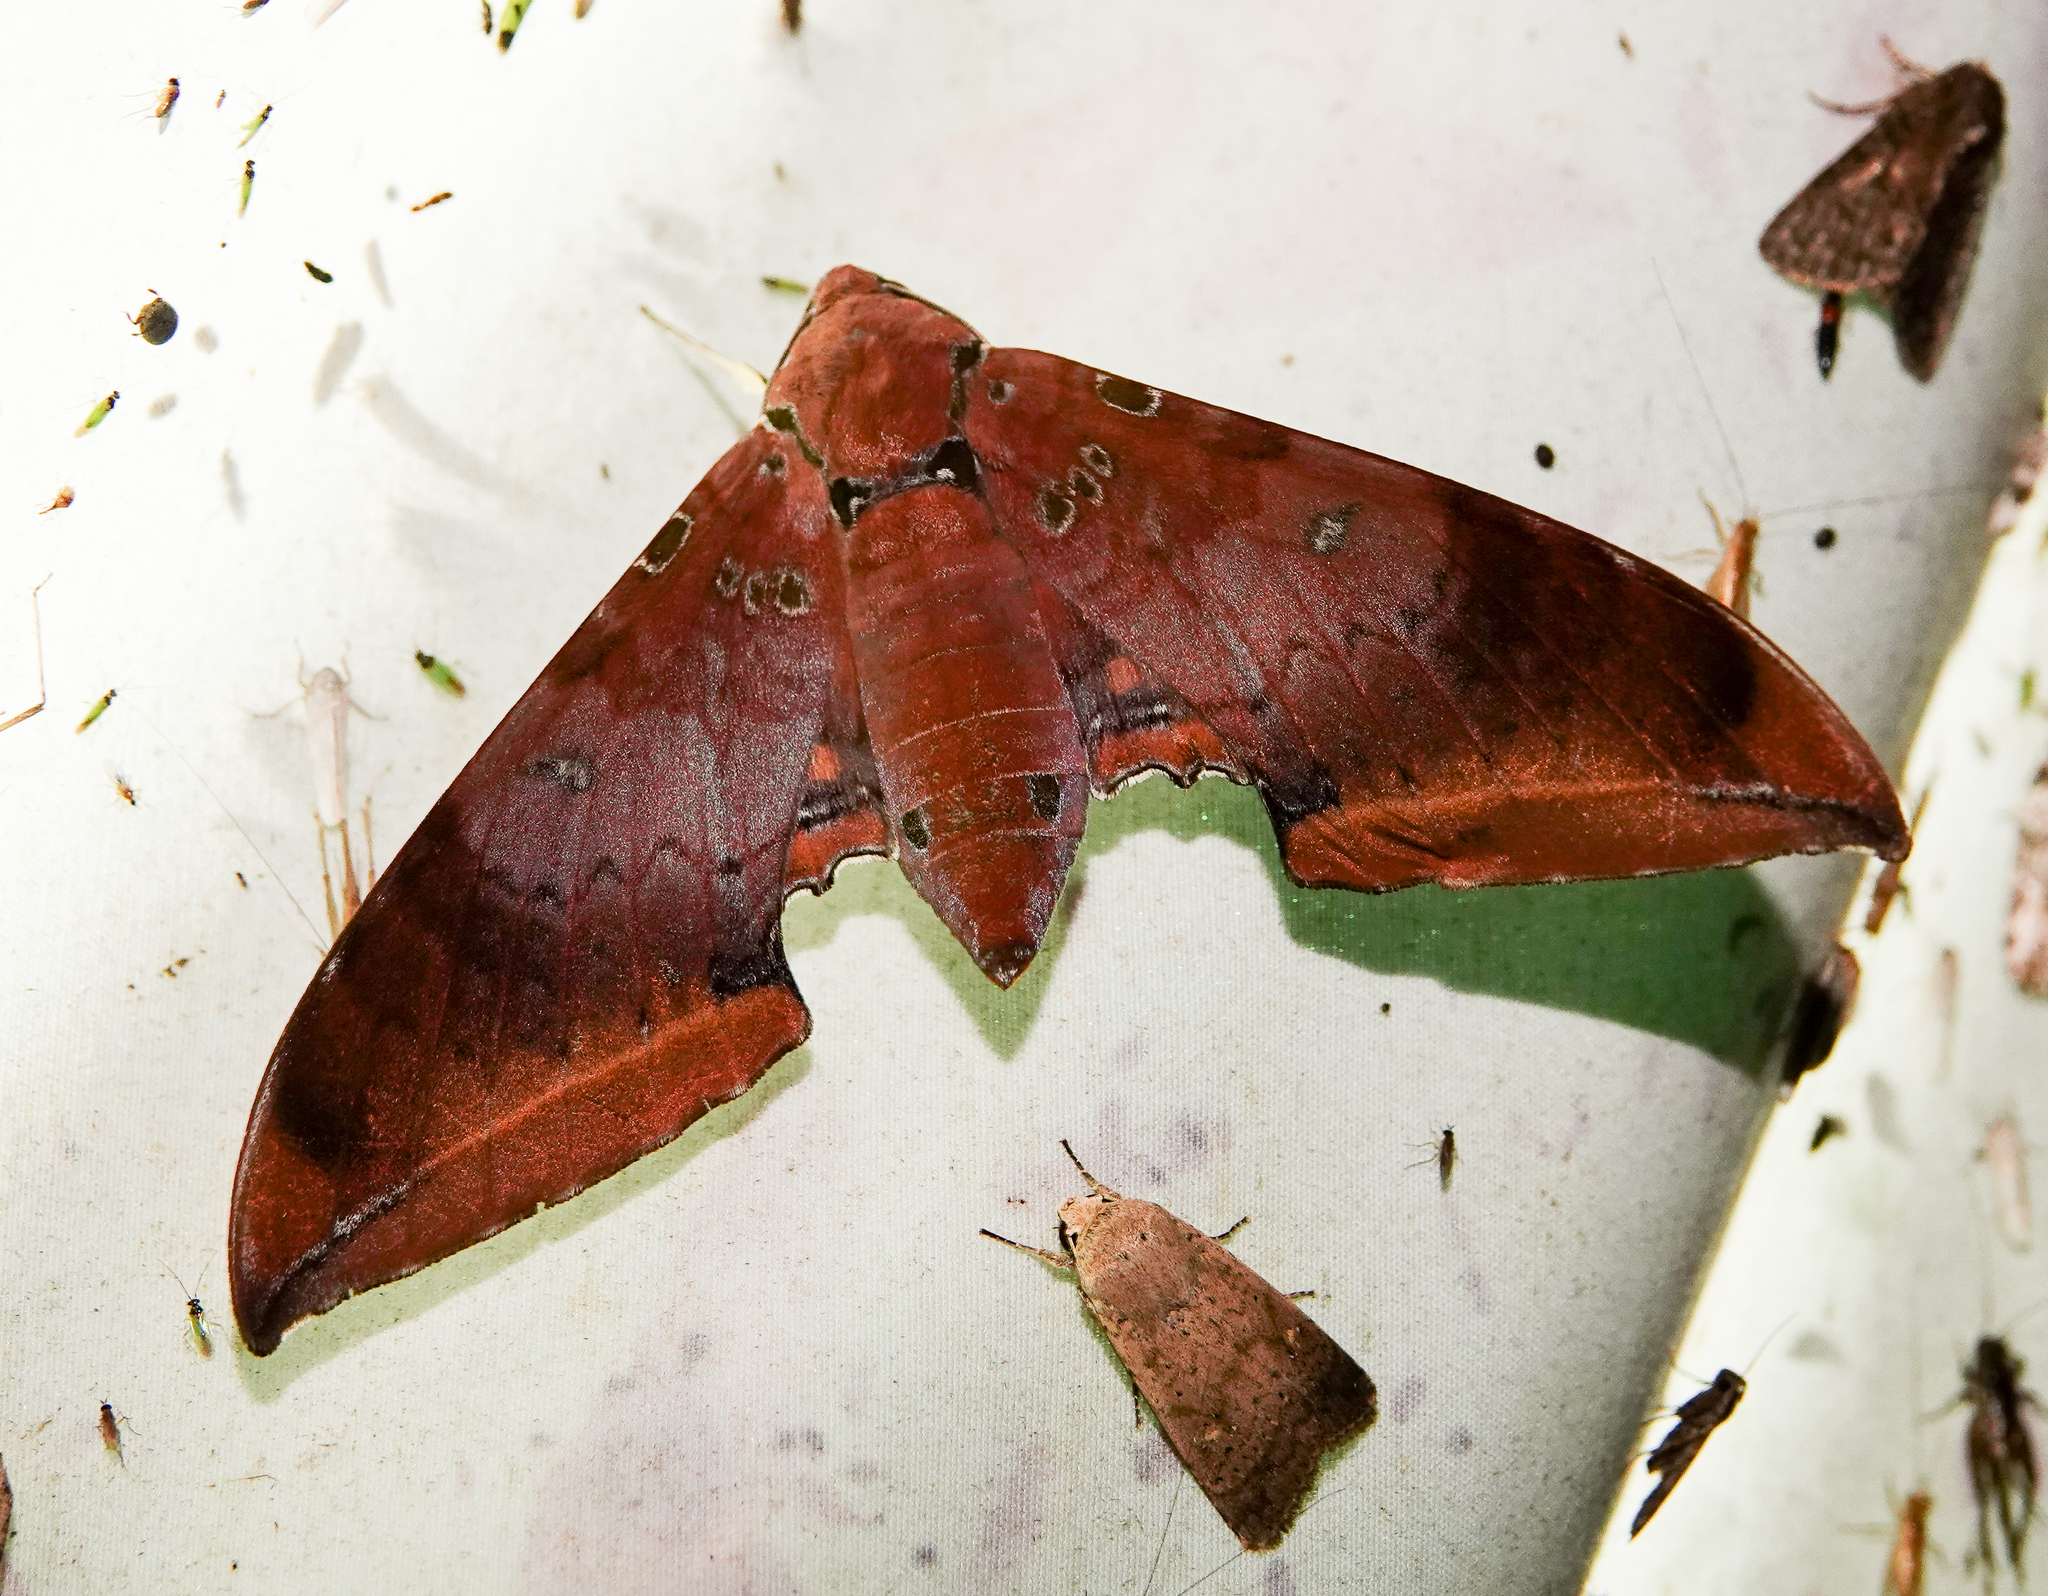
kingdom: Animalia
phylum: Arthropoda
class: Insecta
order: Lepidoptera
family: Sphingidae
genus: Ambulyx
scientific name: Ambulyx moorei
